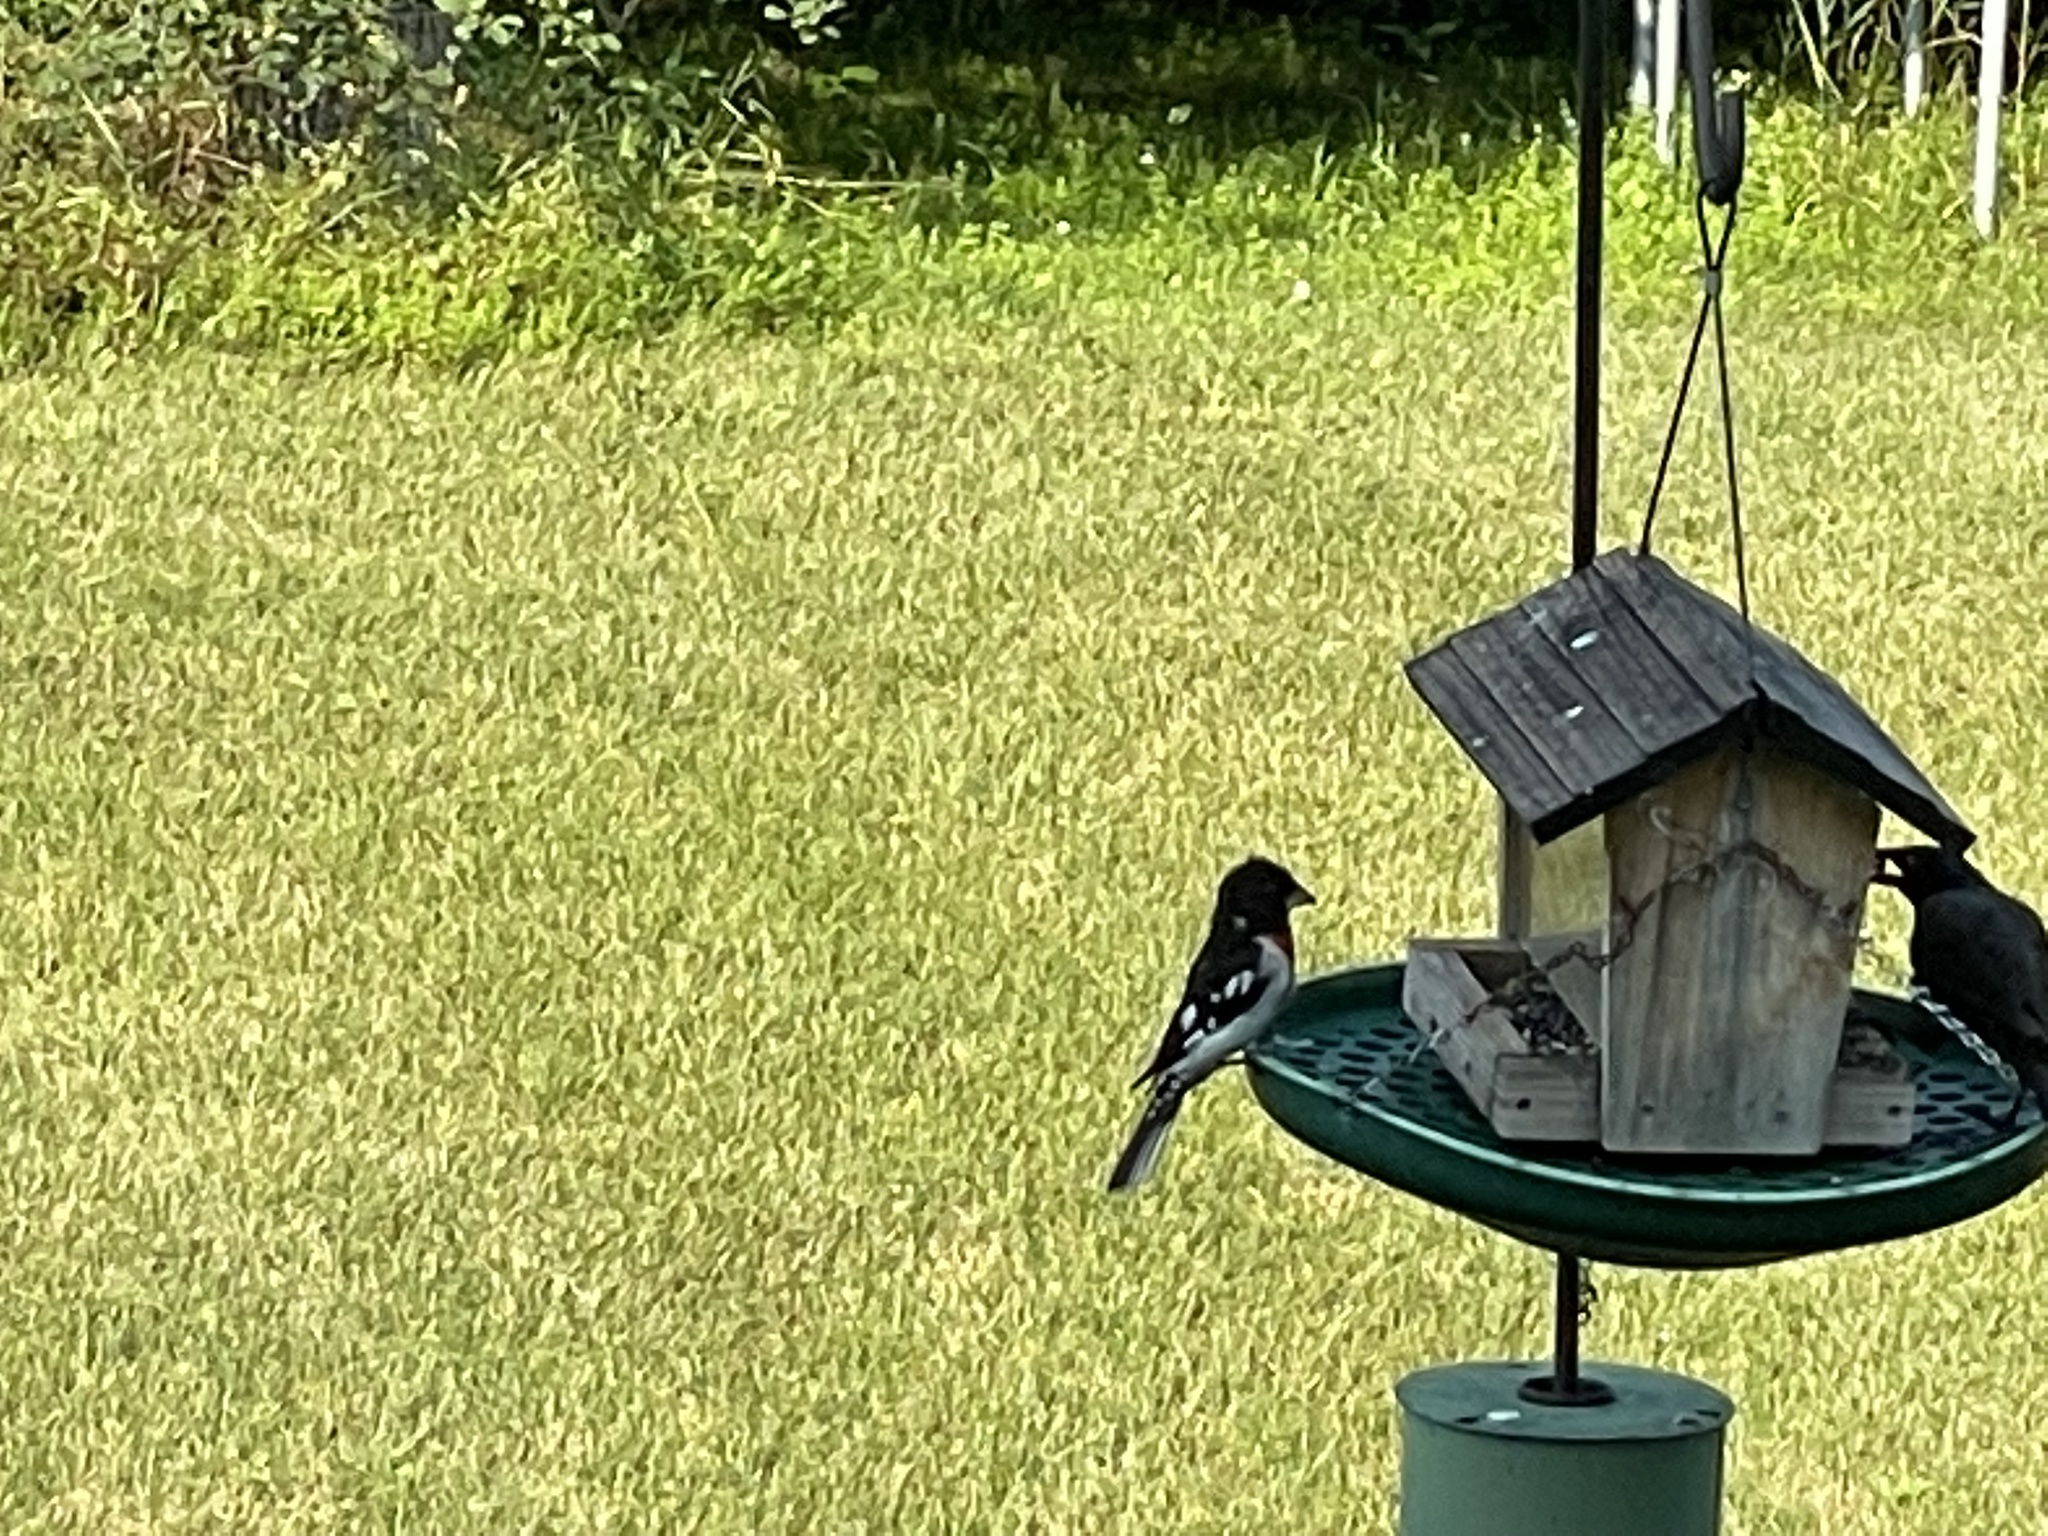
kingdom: Animalia
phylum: Chordata
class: Aves
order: Passeriformes
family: Cardinalidae
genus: Pheucticus
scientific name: Pheucticus ludovicianus
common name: Rose-breasted grosbeak
